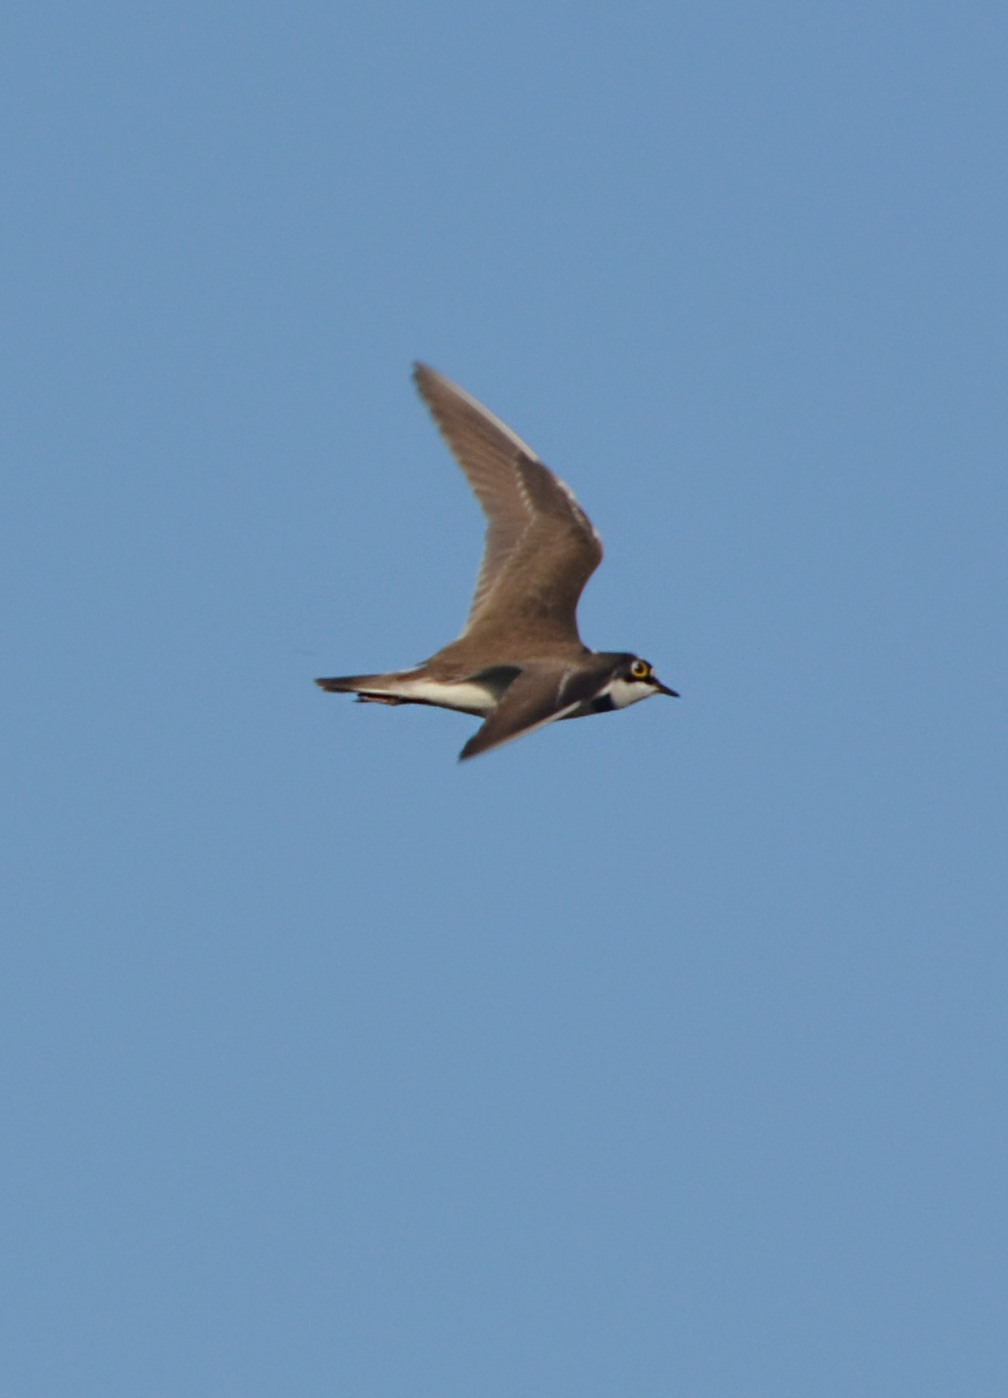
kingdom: Animalia
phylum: Chordata
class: Aves
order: Charadriiformes
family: Charadriidae
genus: Charadrius
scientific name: Charadrius dubius
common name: Little ringed plover
